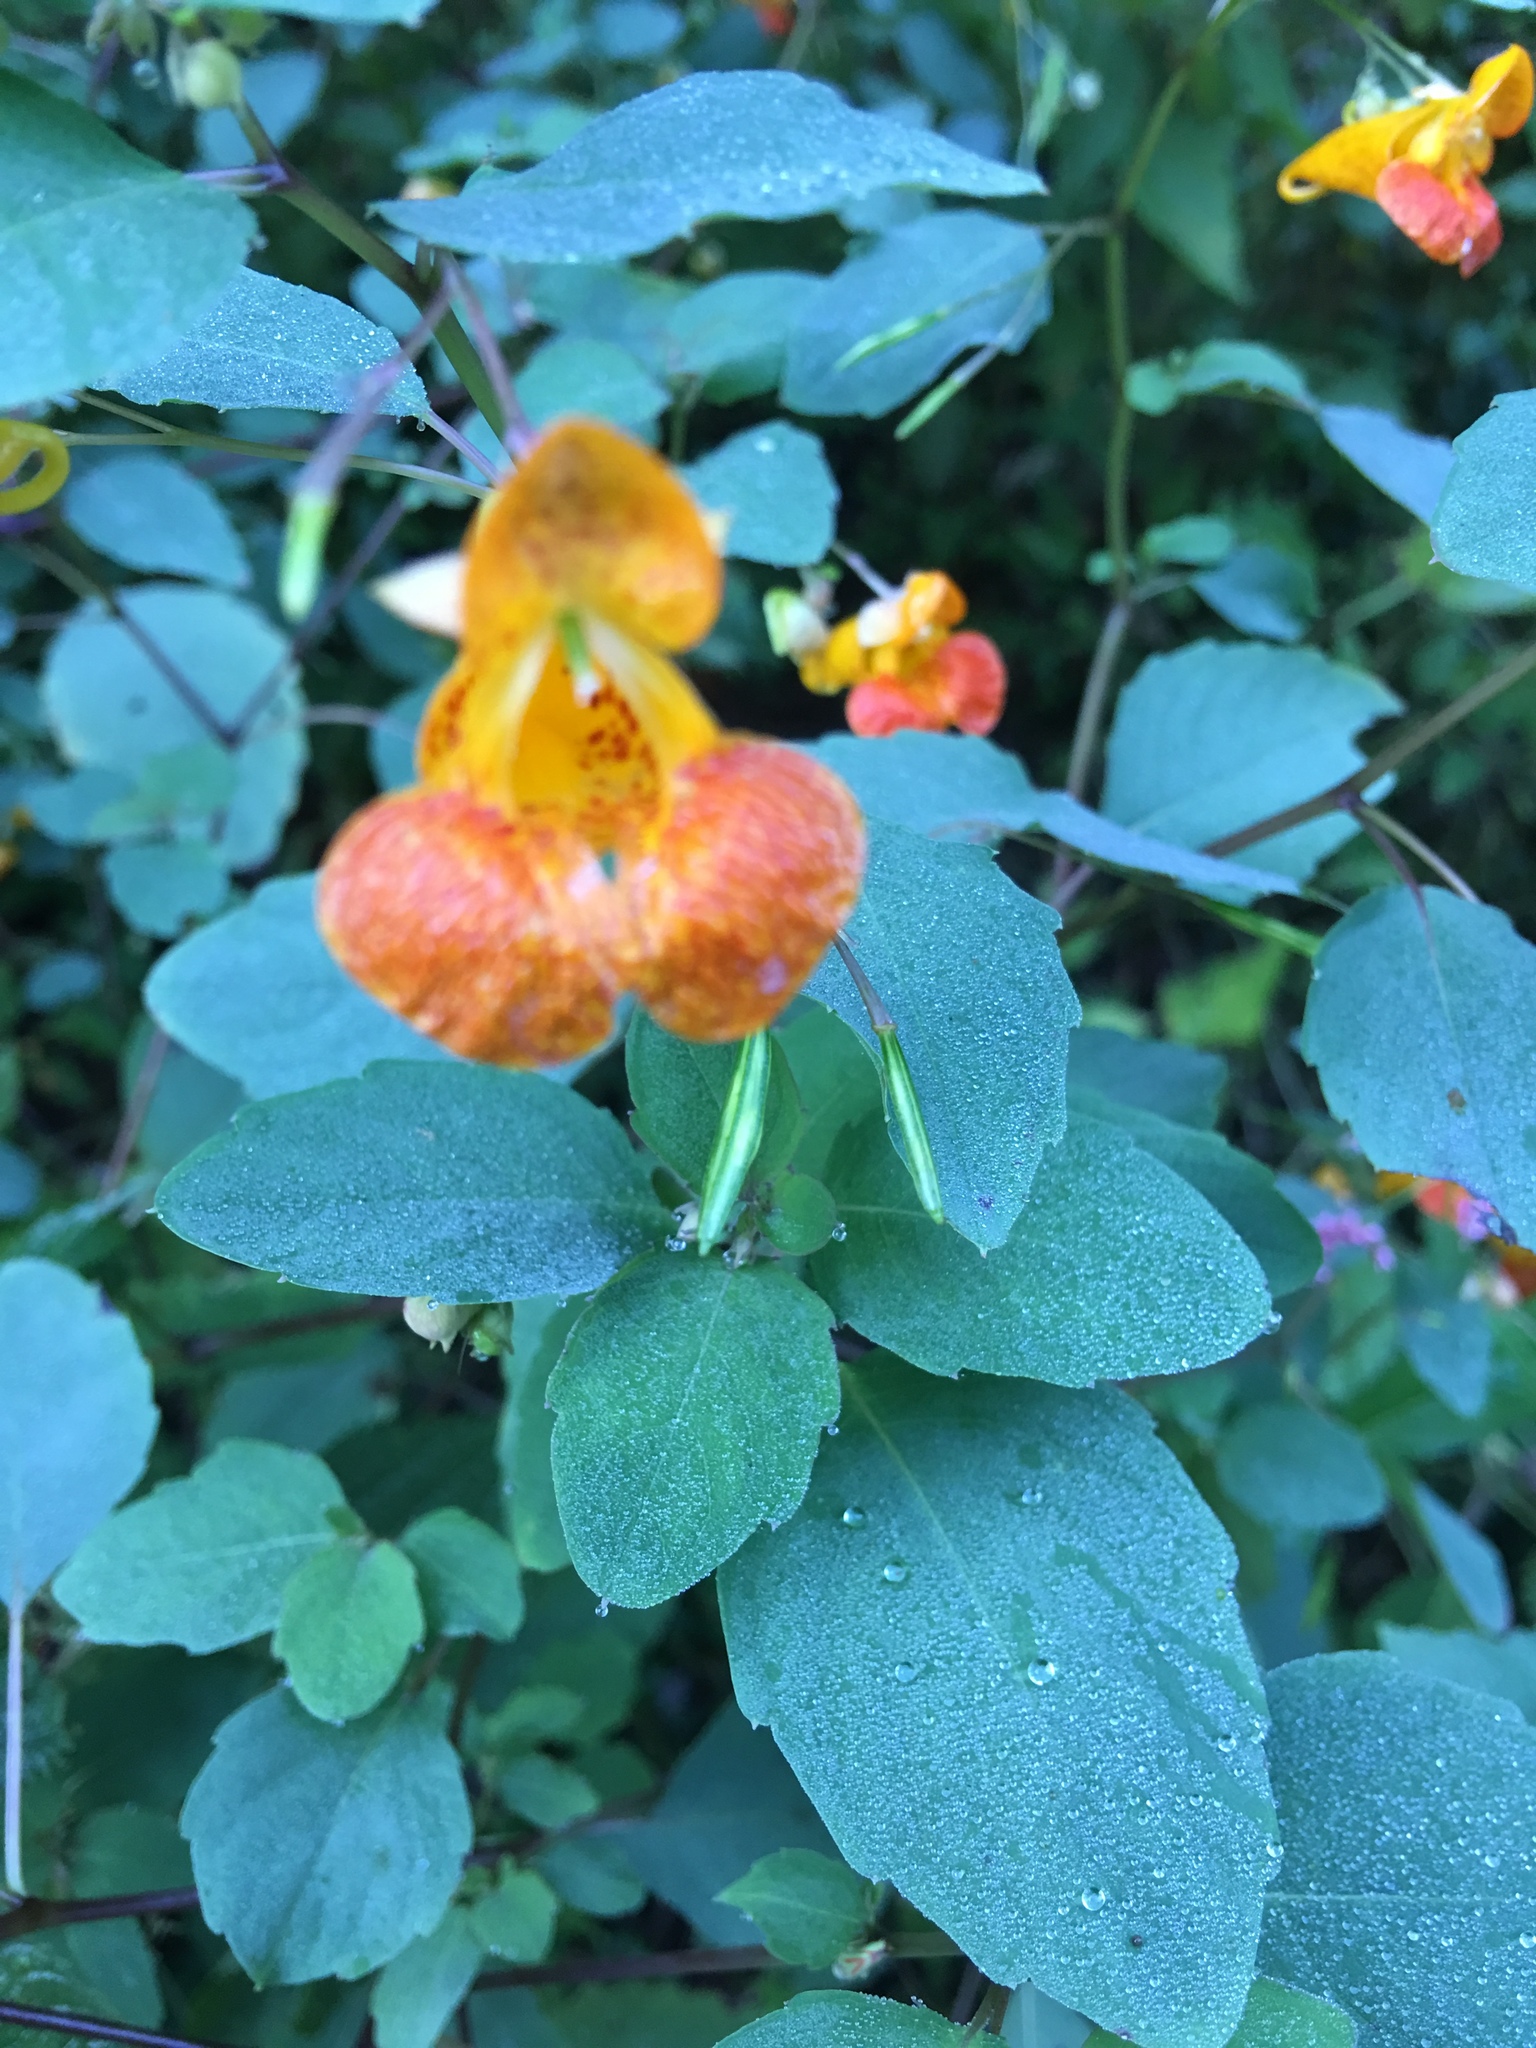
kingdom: Plantae
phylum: Tracheophyta
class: Magnoliopsida
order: Ericales
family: Balsaminaceae
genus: Impatiens
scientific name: Impatiens capensis
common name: Orange balsam
